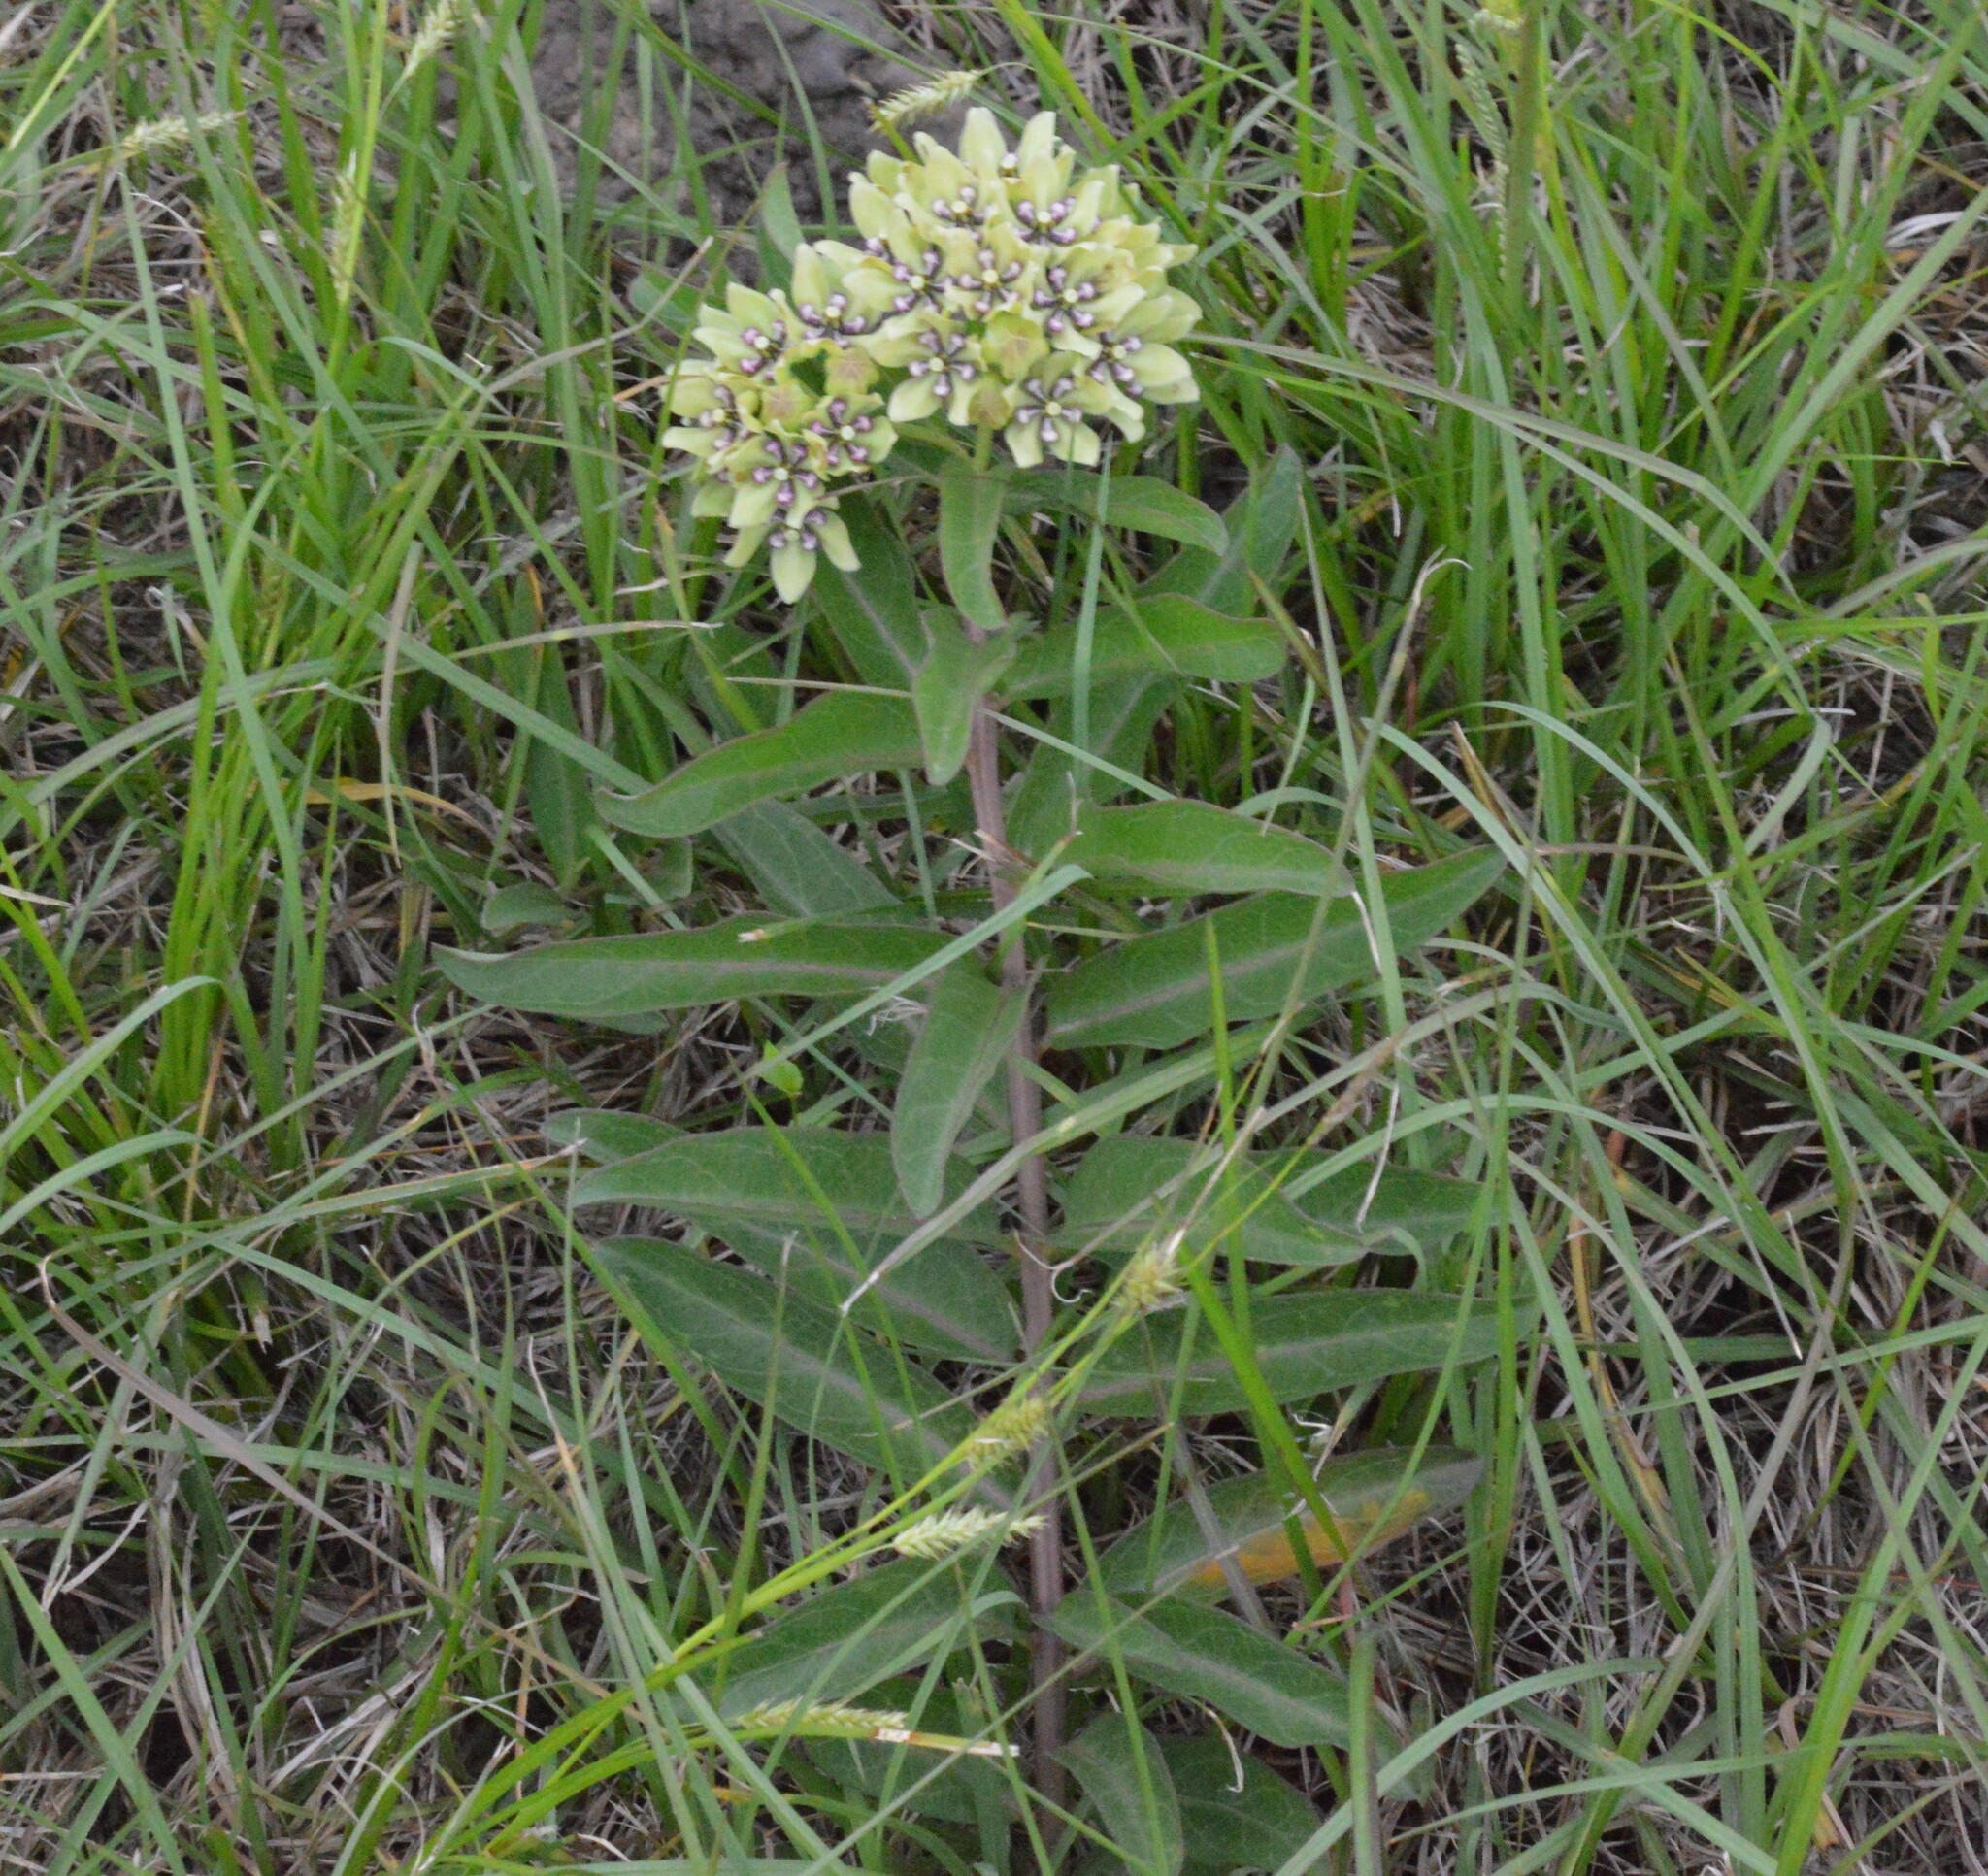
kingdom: Plantae
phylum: Tracheophyta
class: Magnoliopsida
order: Gentianales
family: Apocynaceae
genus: Asclepias
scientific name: Asclepias viridis
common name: Antelope-horns
